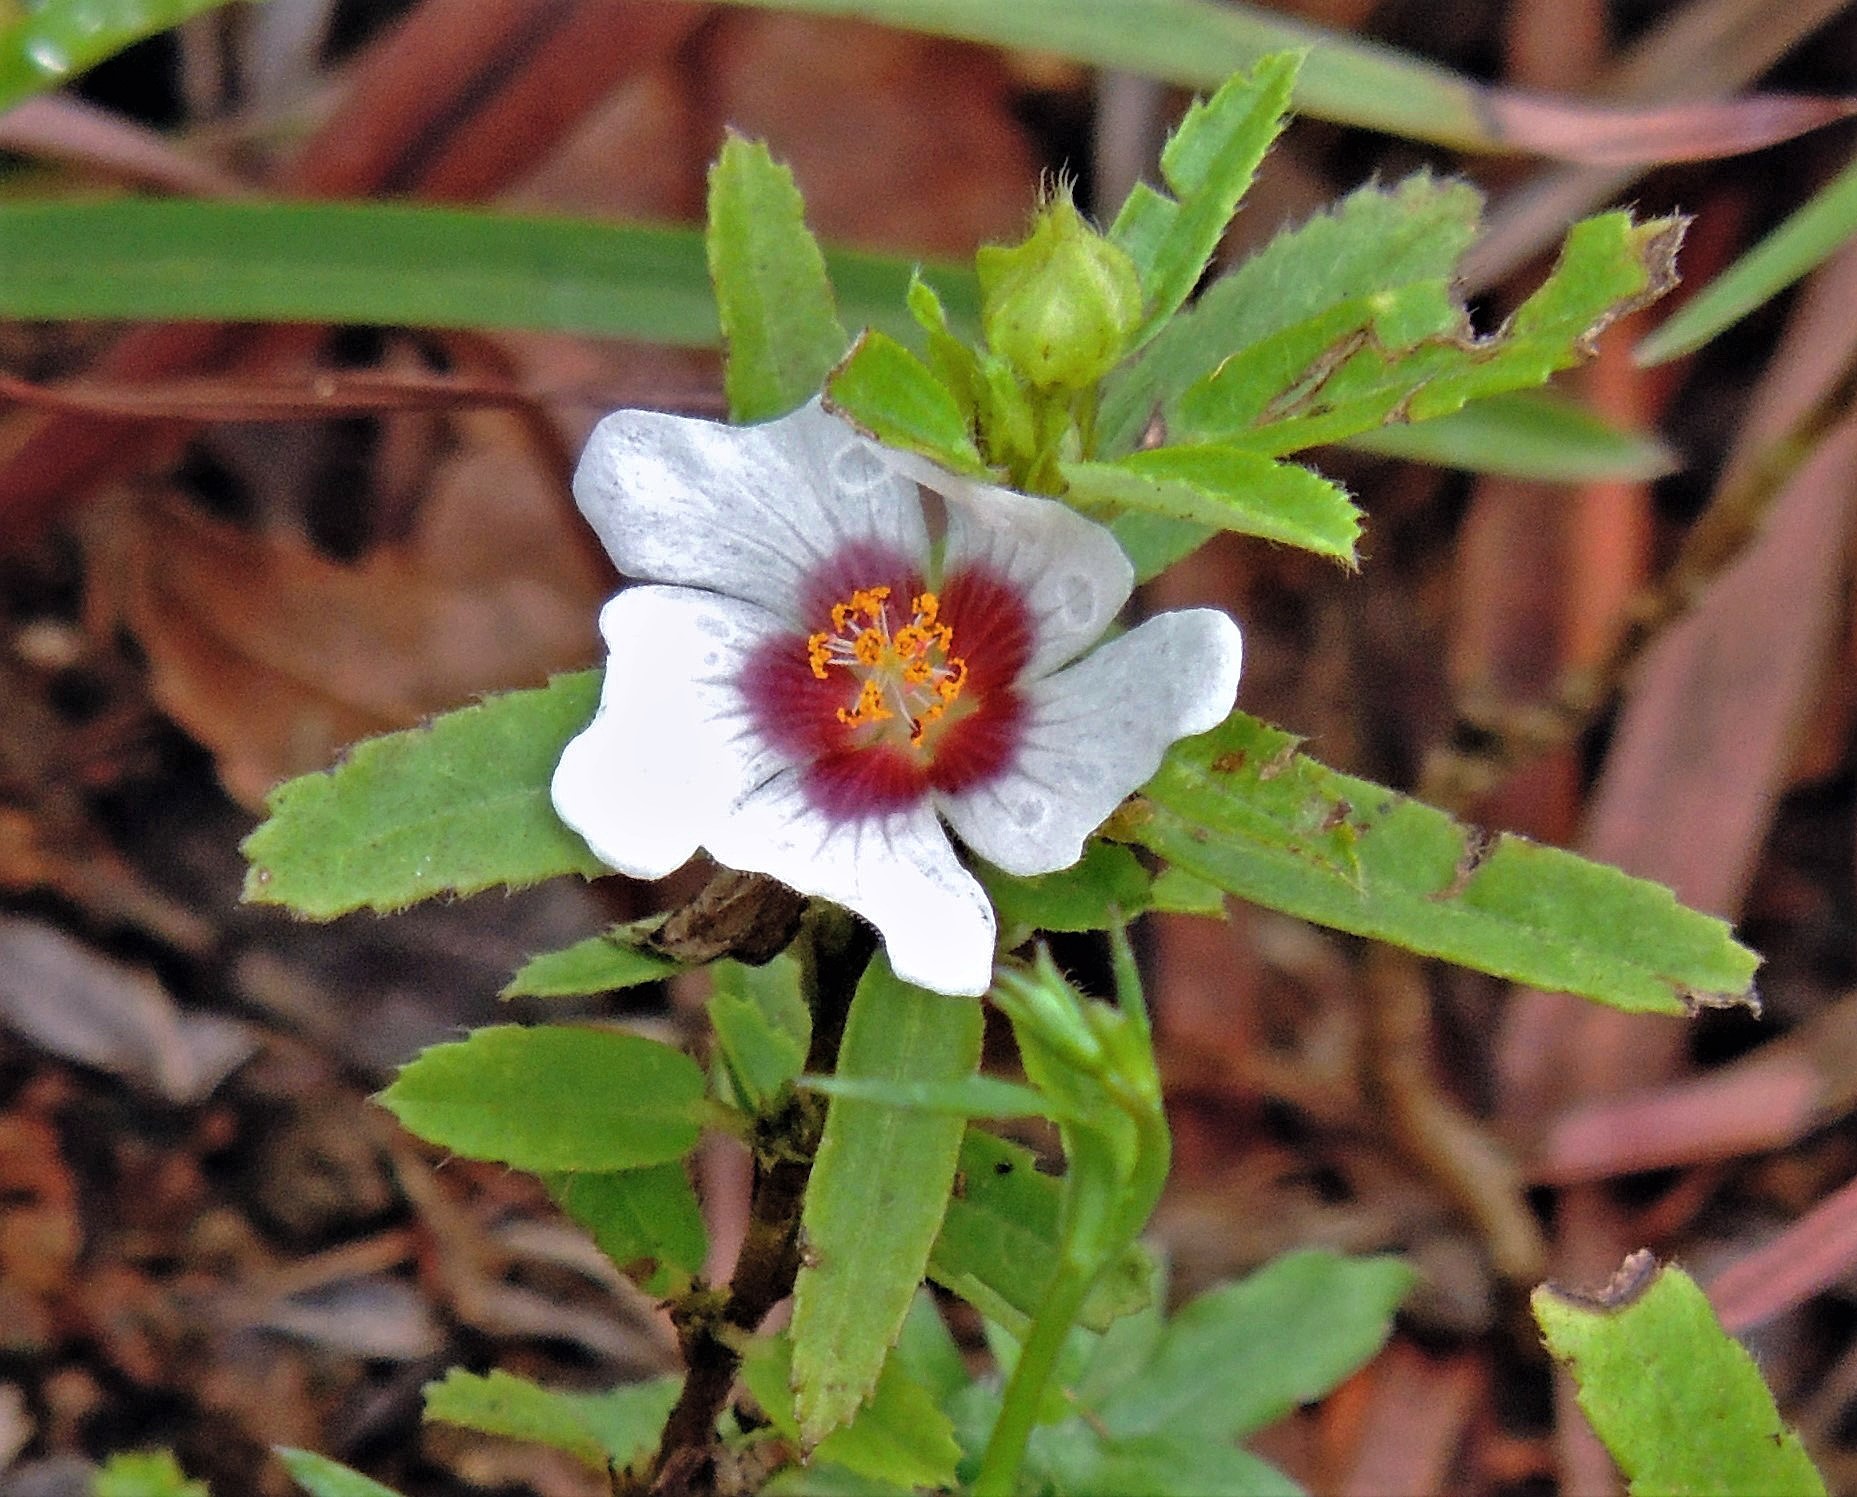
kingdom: Plantae
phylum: Tracheophyta
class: Magnoliopsida
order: Malvales
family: Malvaceae
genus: Sida
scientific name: Sida viarum
